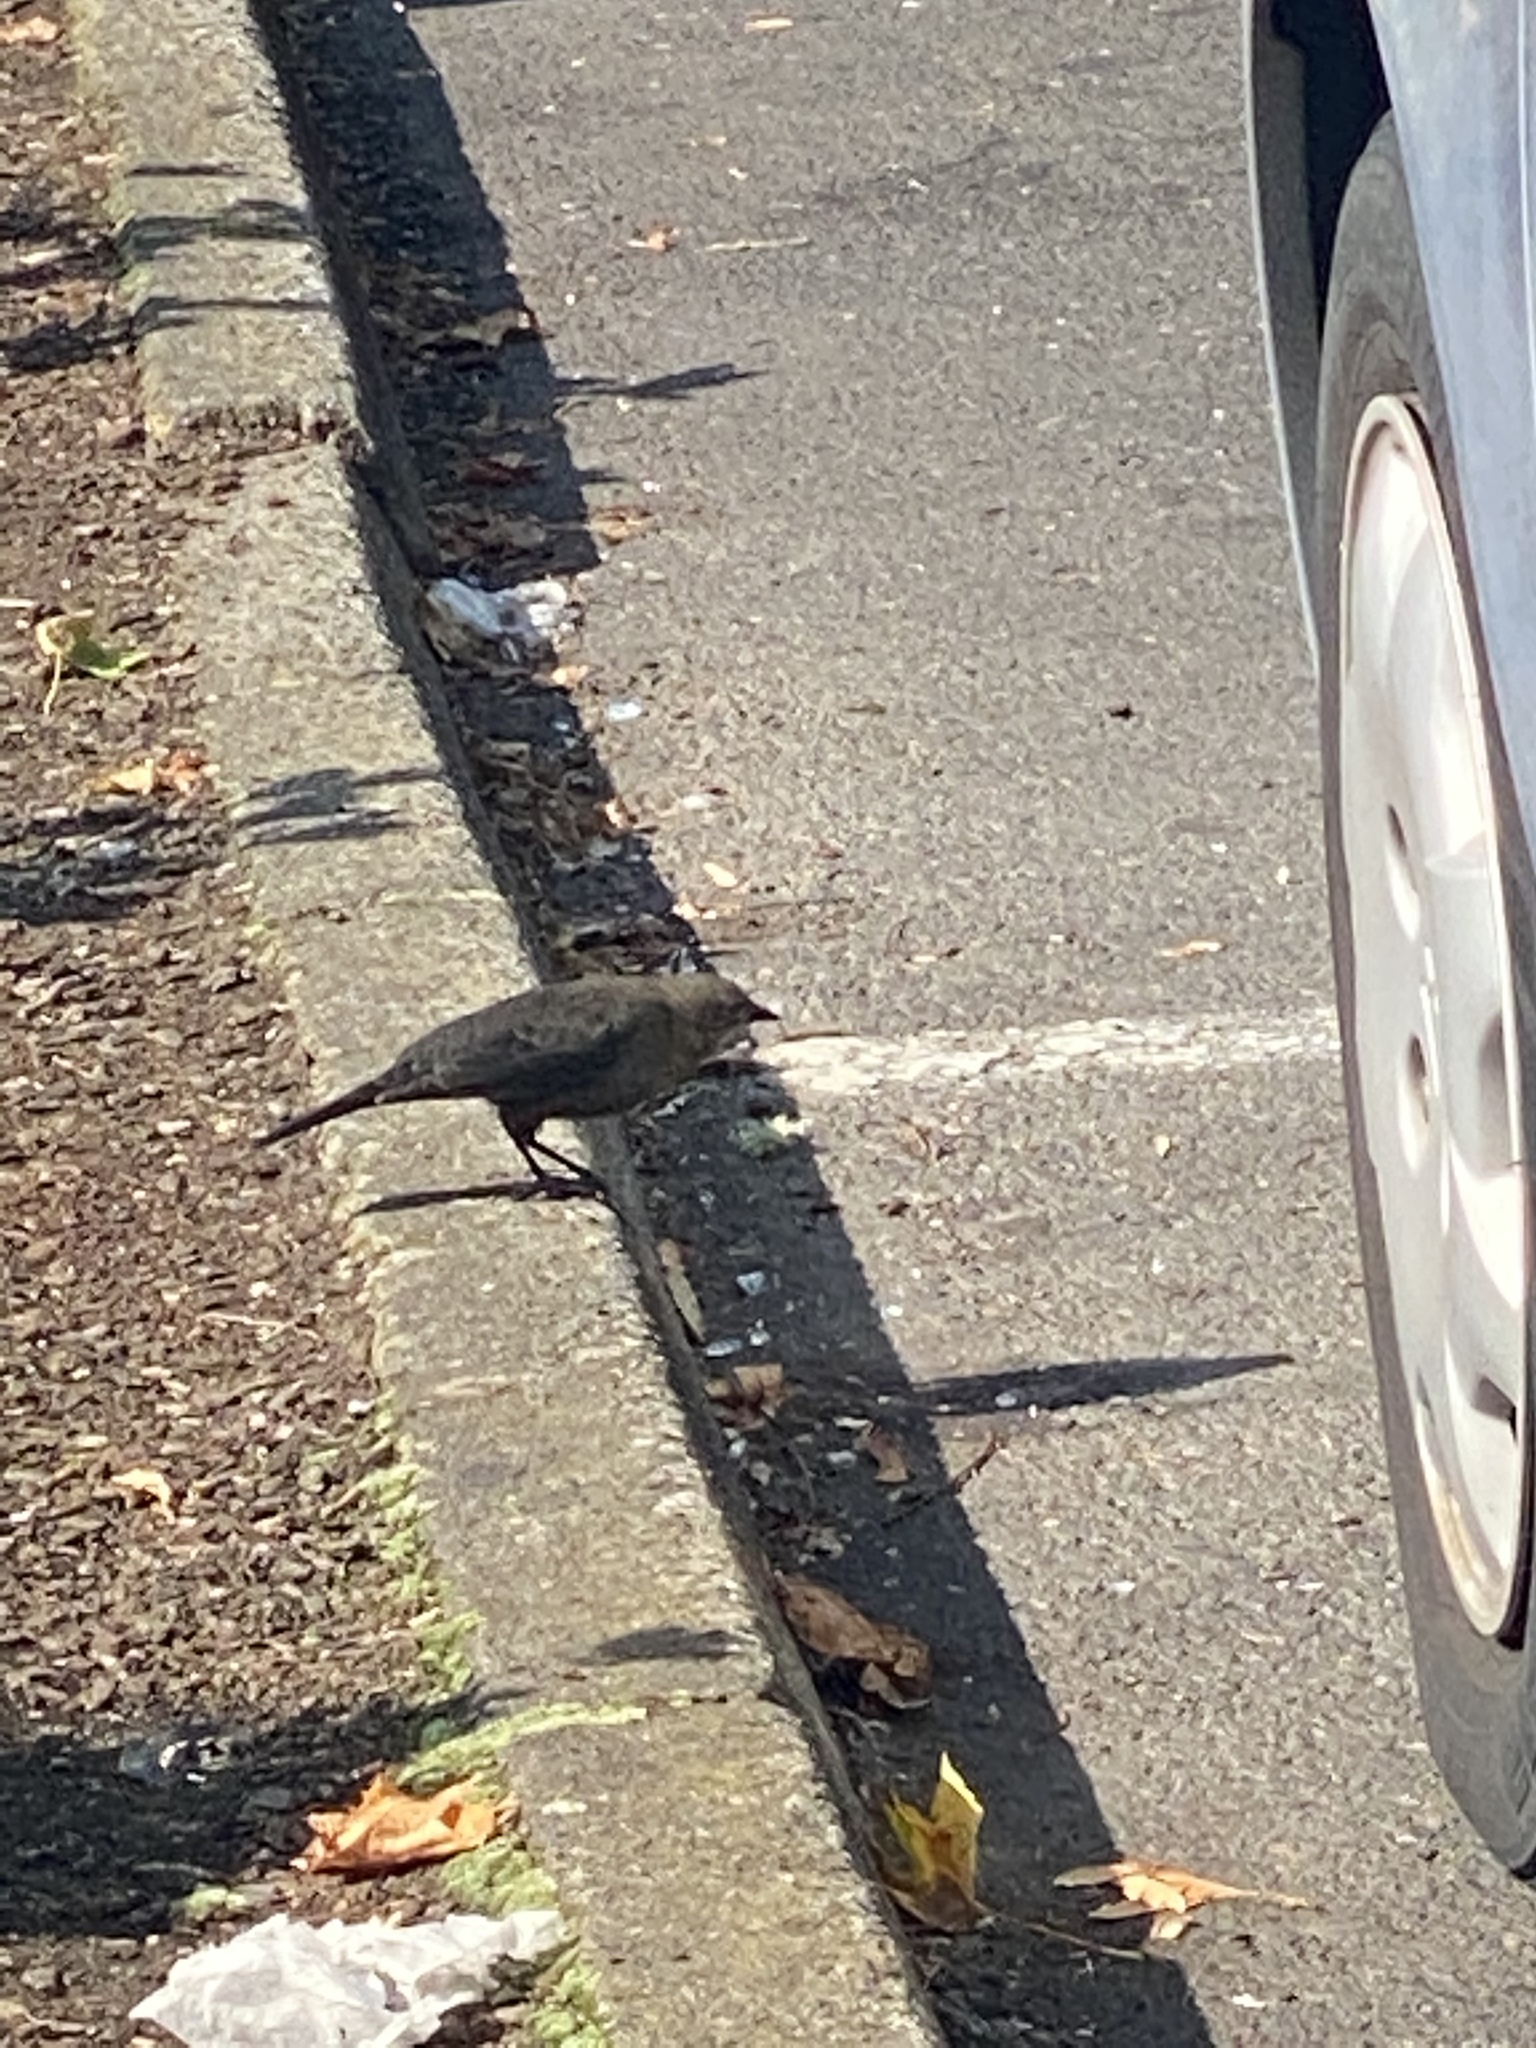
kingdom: Animalia
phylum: Chordata
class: Aves
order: Passeriformes
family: Icteridae
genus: Euphagus
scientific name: Euphagus cyanocephalus
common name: Brewer's blackbird
